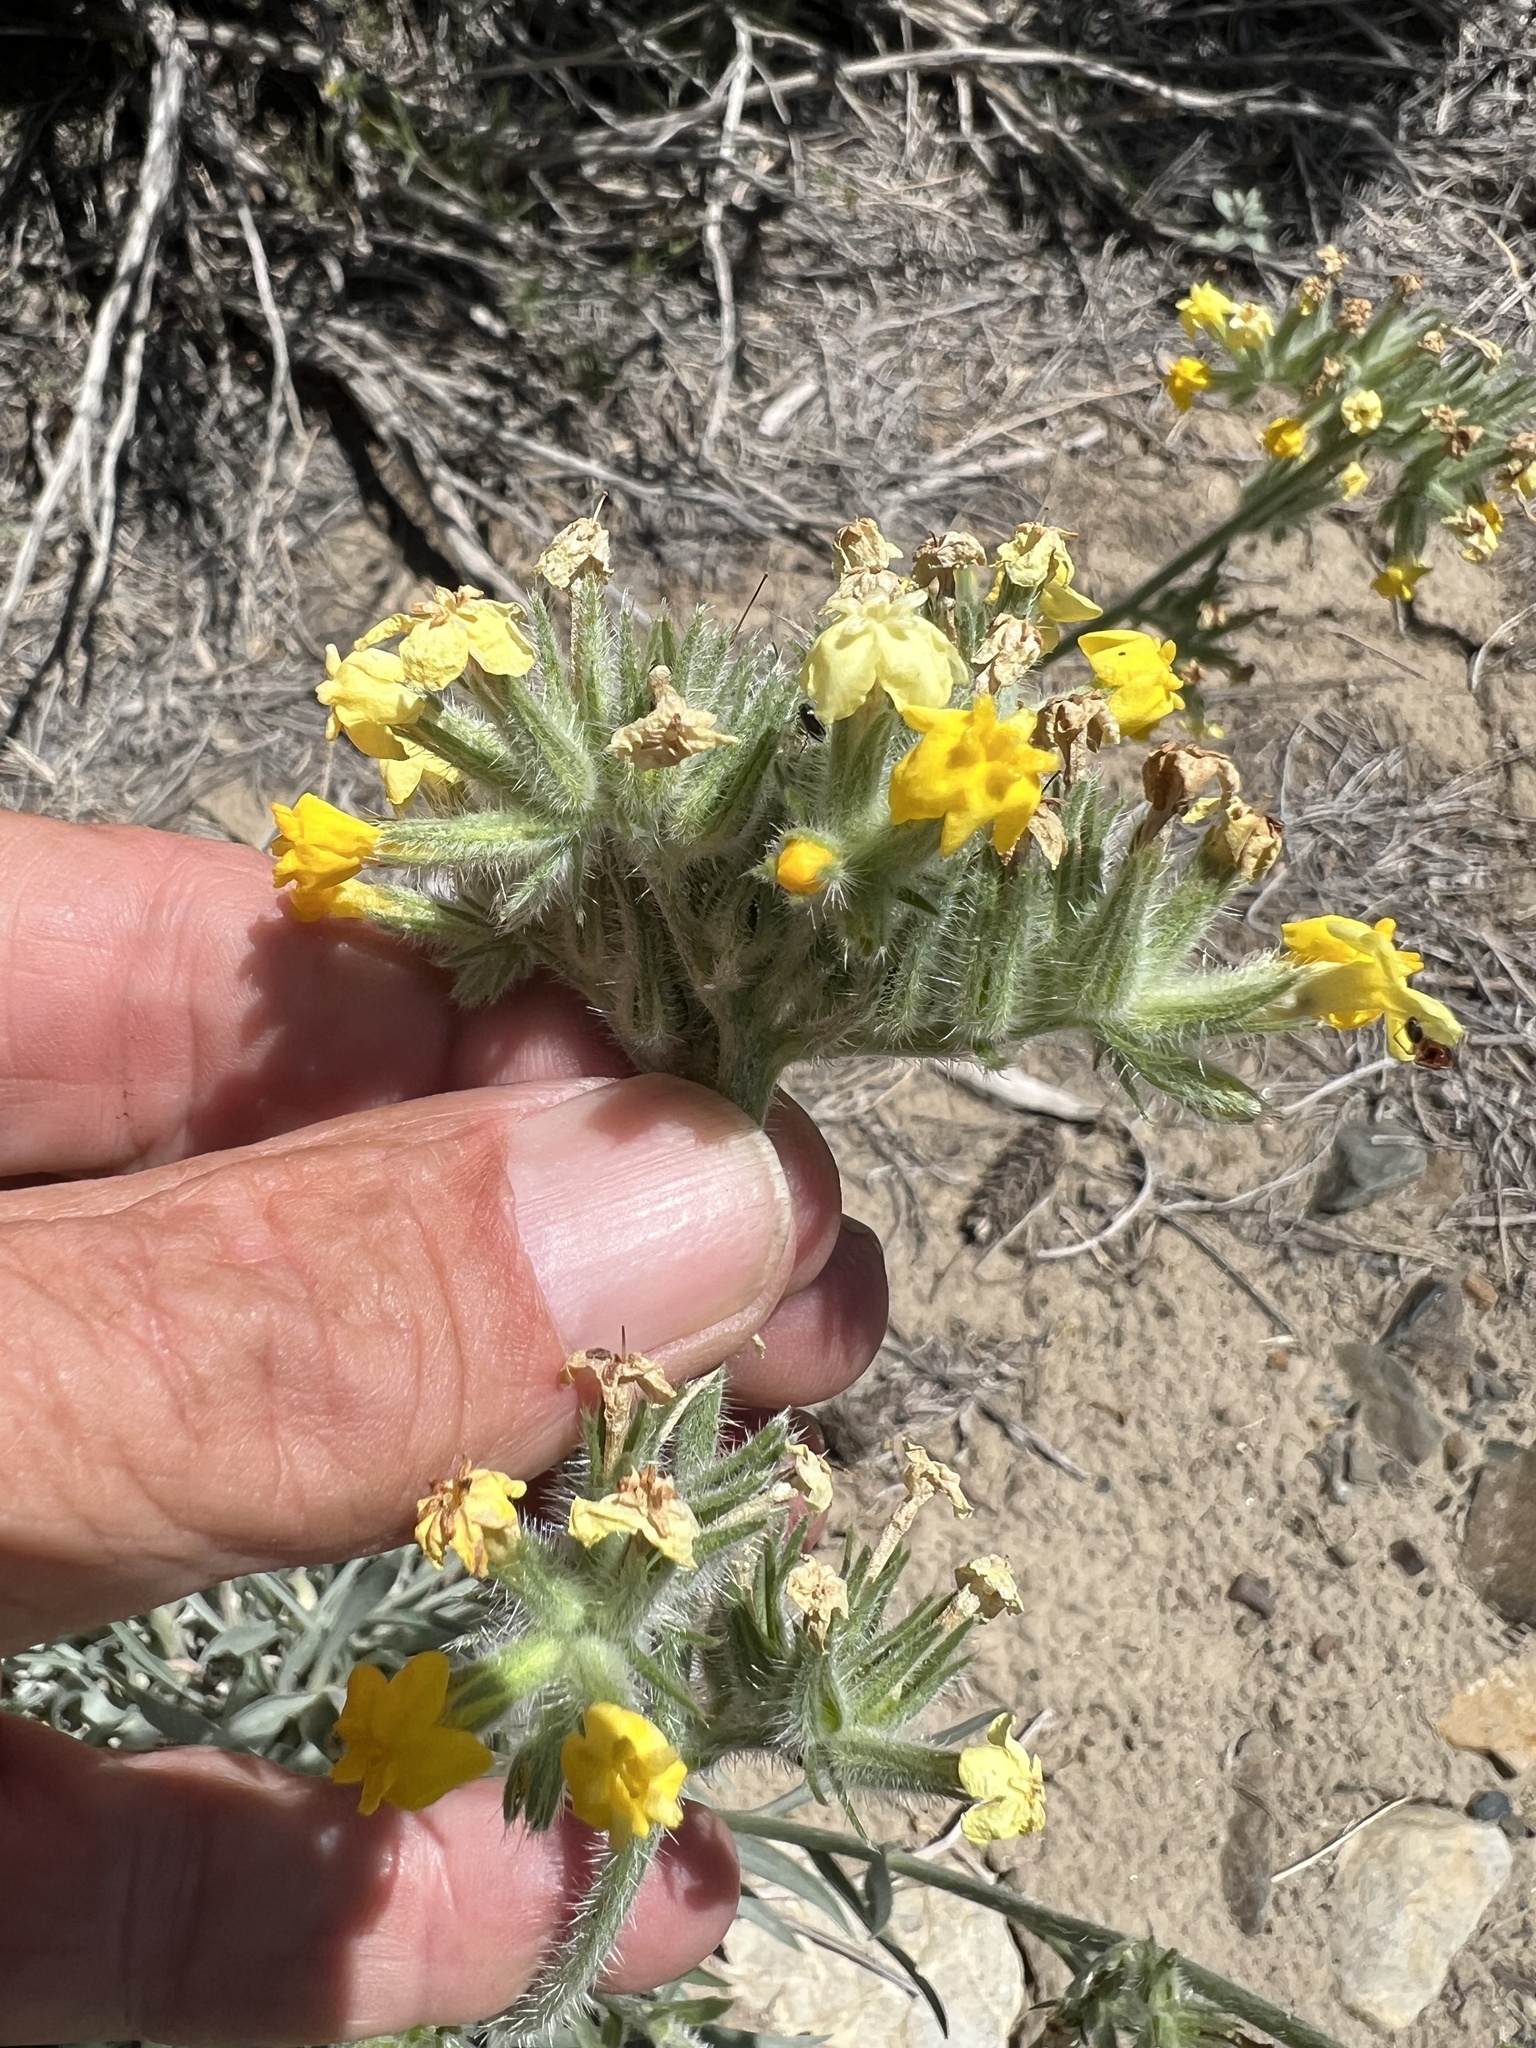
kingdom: Plantae
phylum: Tracheophyta
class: Magnoliopsida
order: Boraginales
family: Boraginaceae
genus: Oreocarya
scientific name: Oreocarya confertiflora
